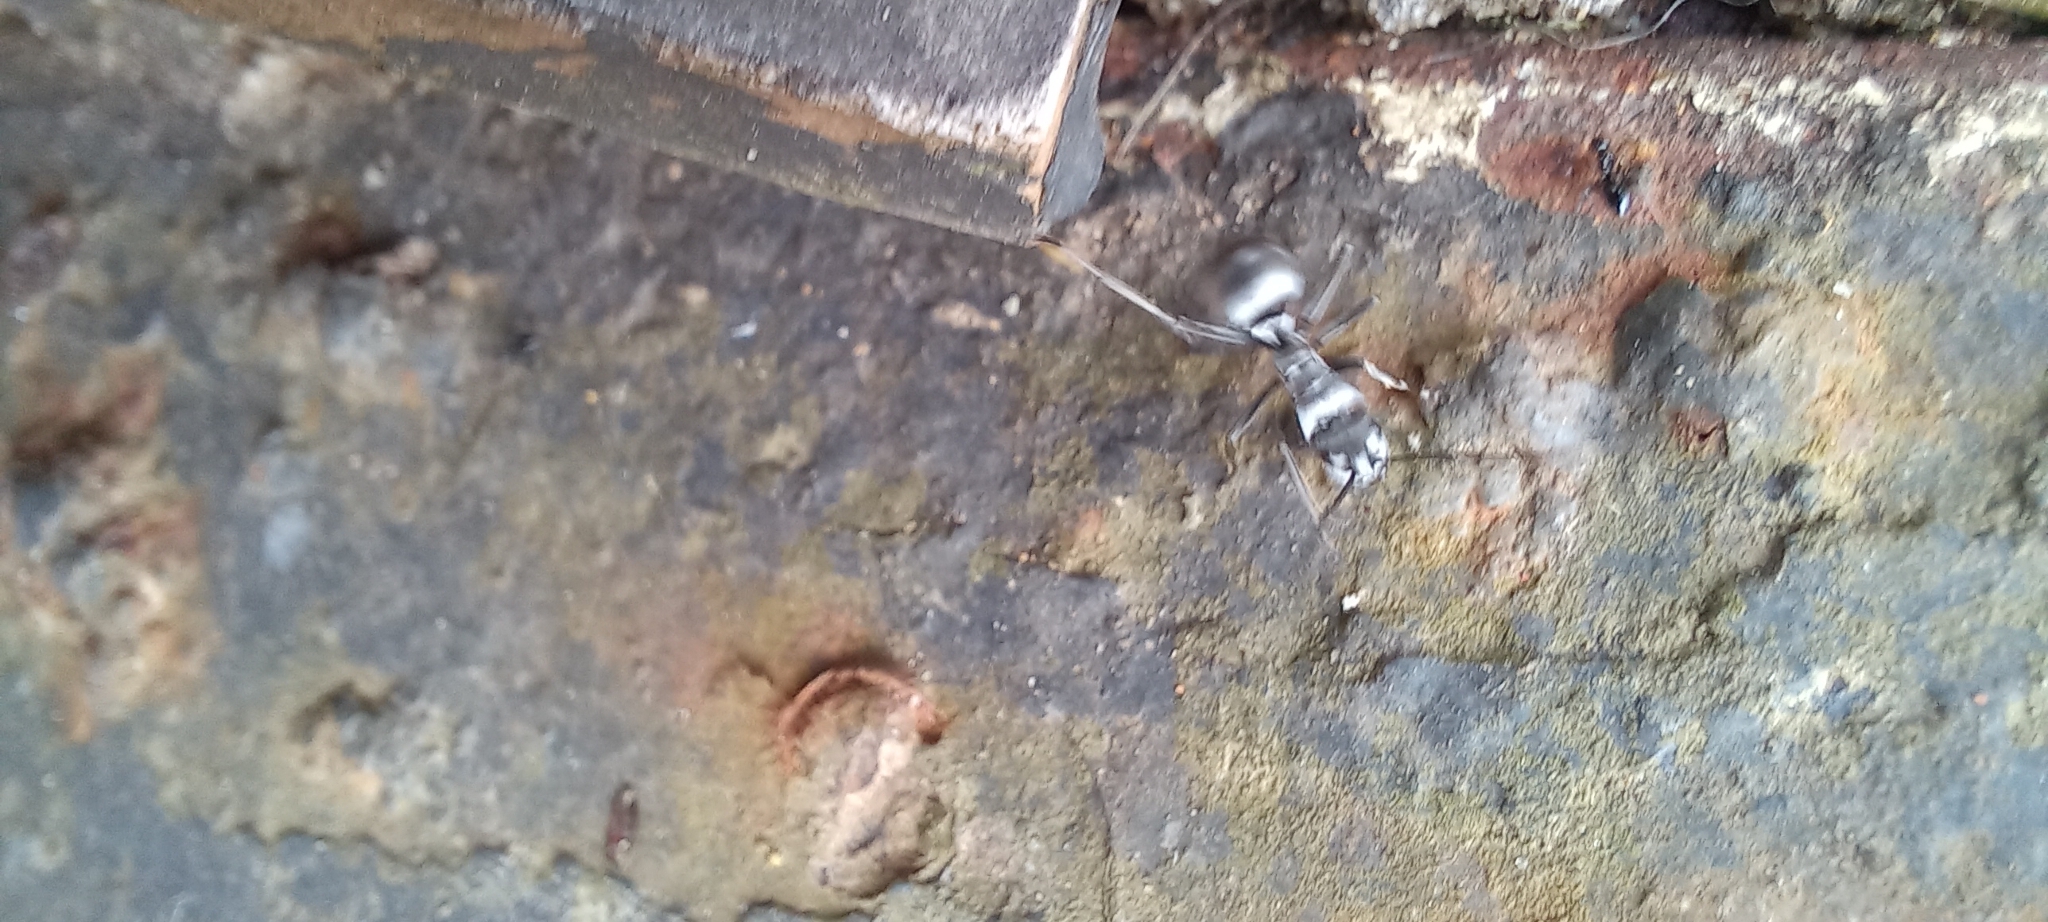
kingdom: Animalia
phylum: Arthropoda
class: Insecta
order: Hymenoptera
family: Formicidae
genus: Polyrhachis
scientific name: Polyrhachis schlueteri
